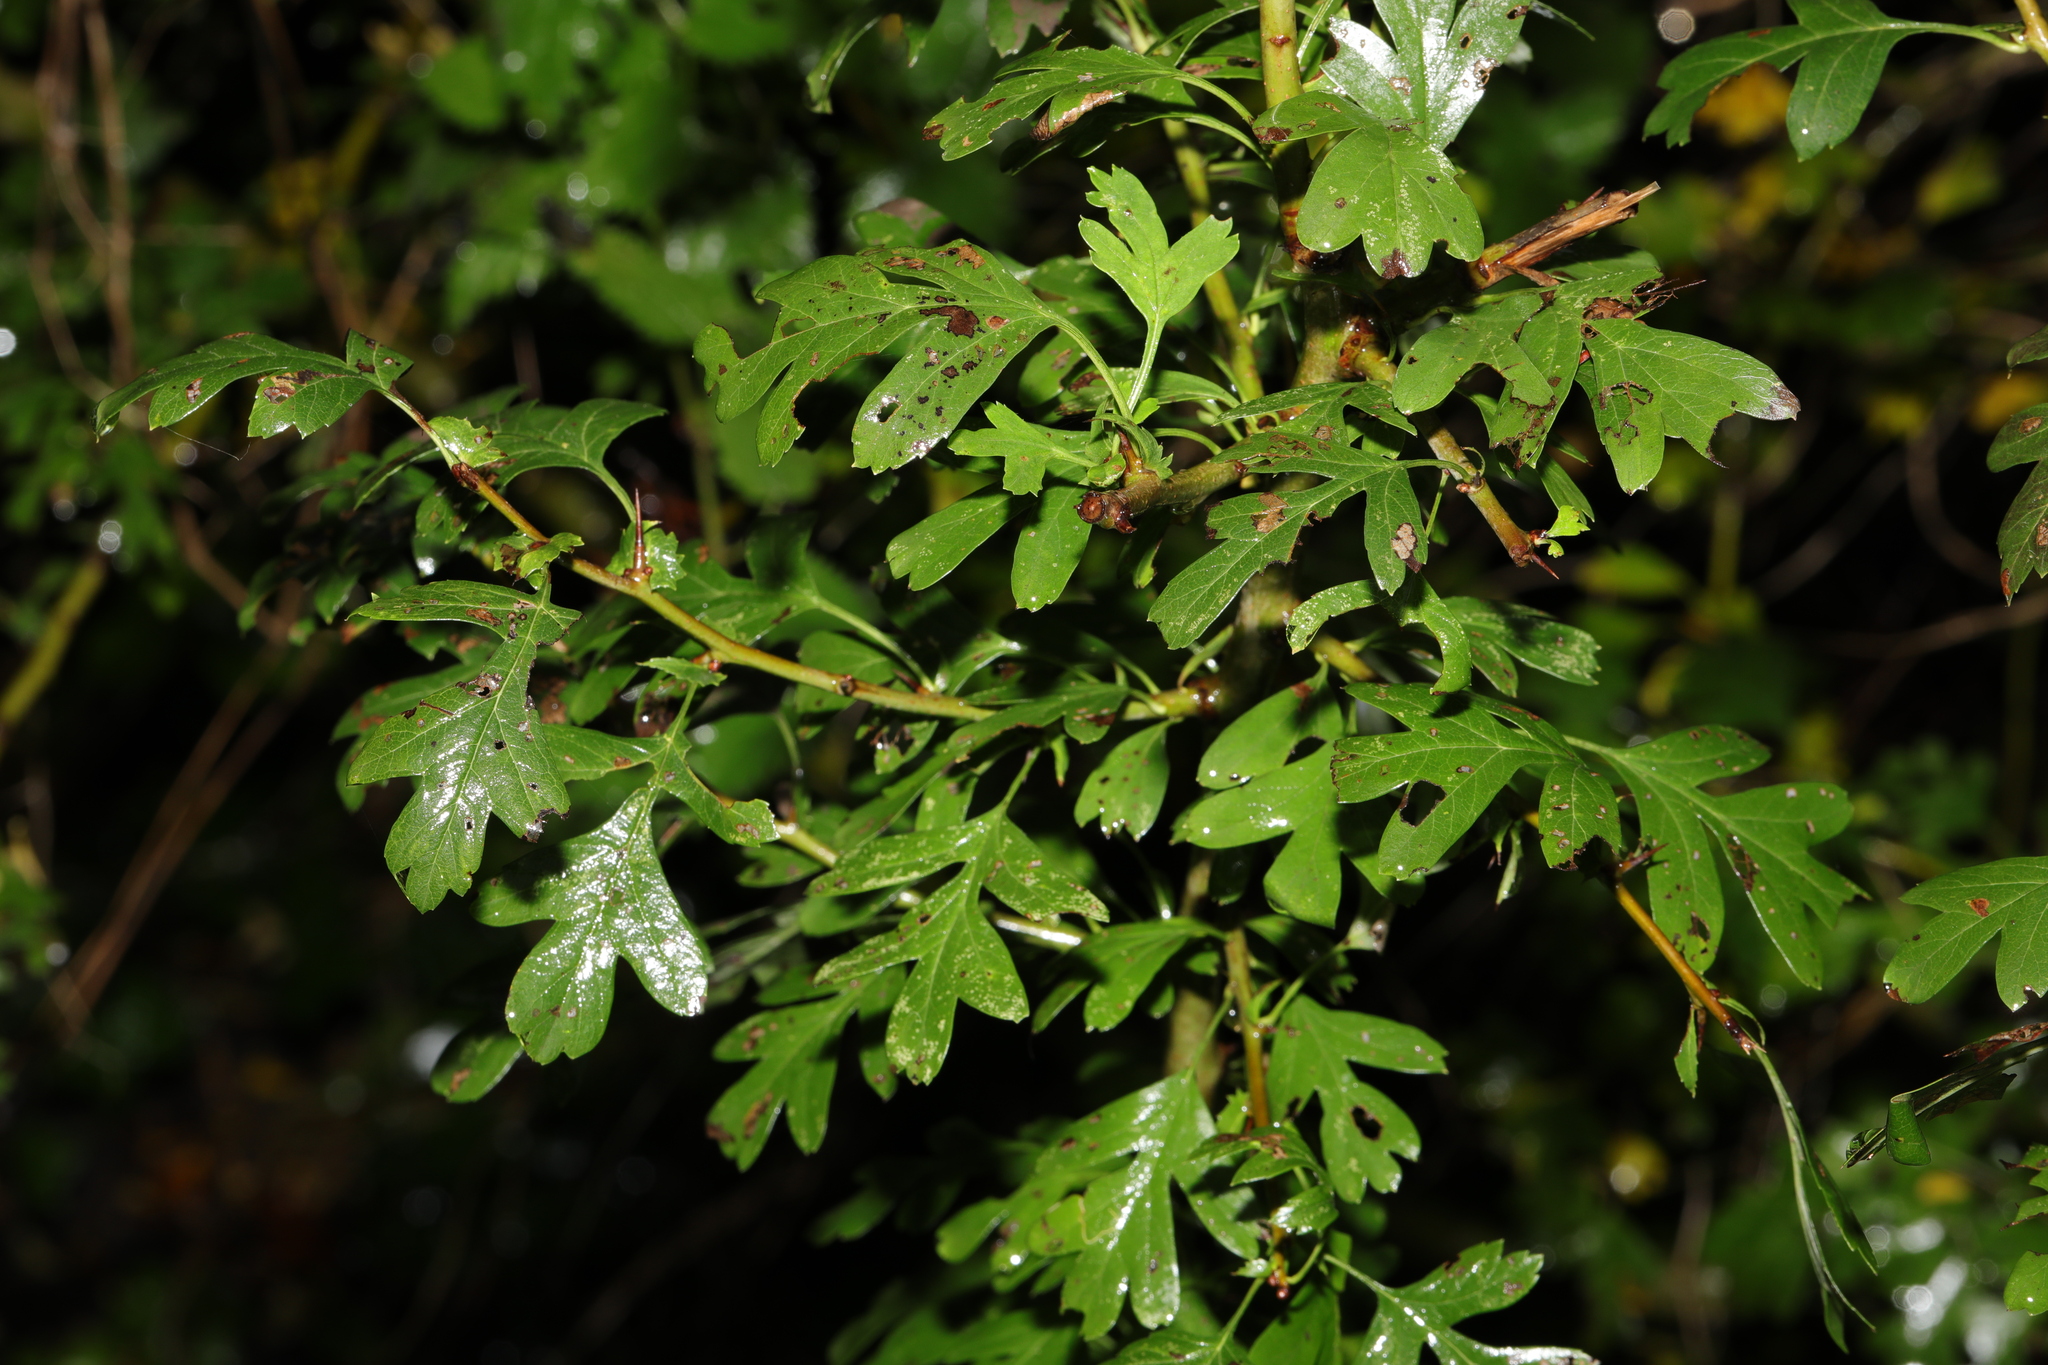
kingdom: Plantae
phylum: Tracheophyta
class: Magnoliopsida
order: Rosales
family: Rosaceae
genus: Crataegus
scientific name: Crataegus monogyna
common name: Hawthorn
